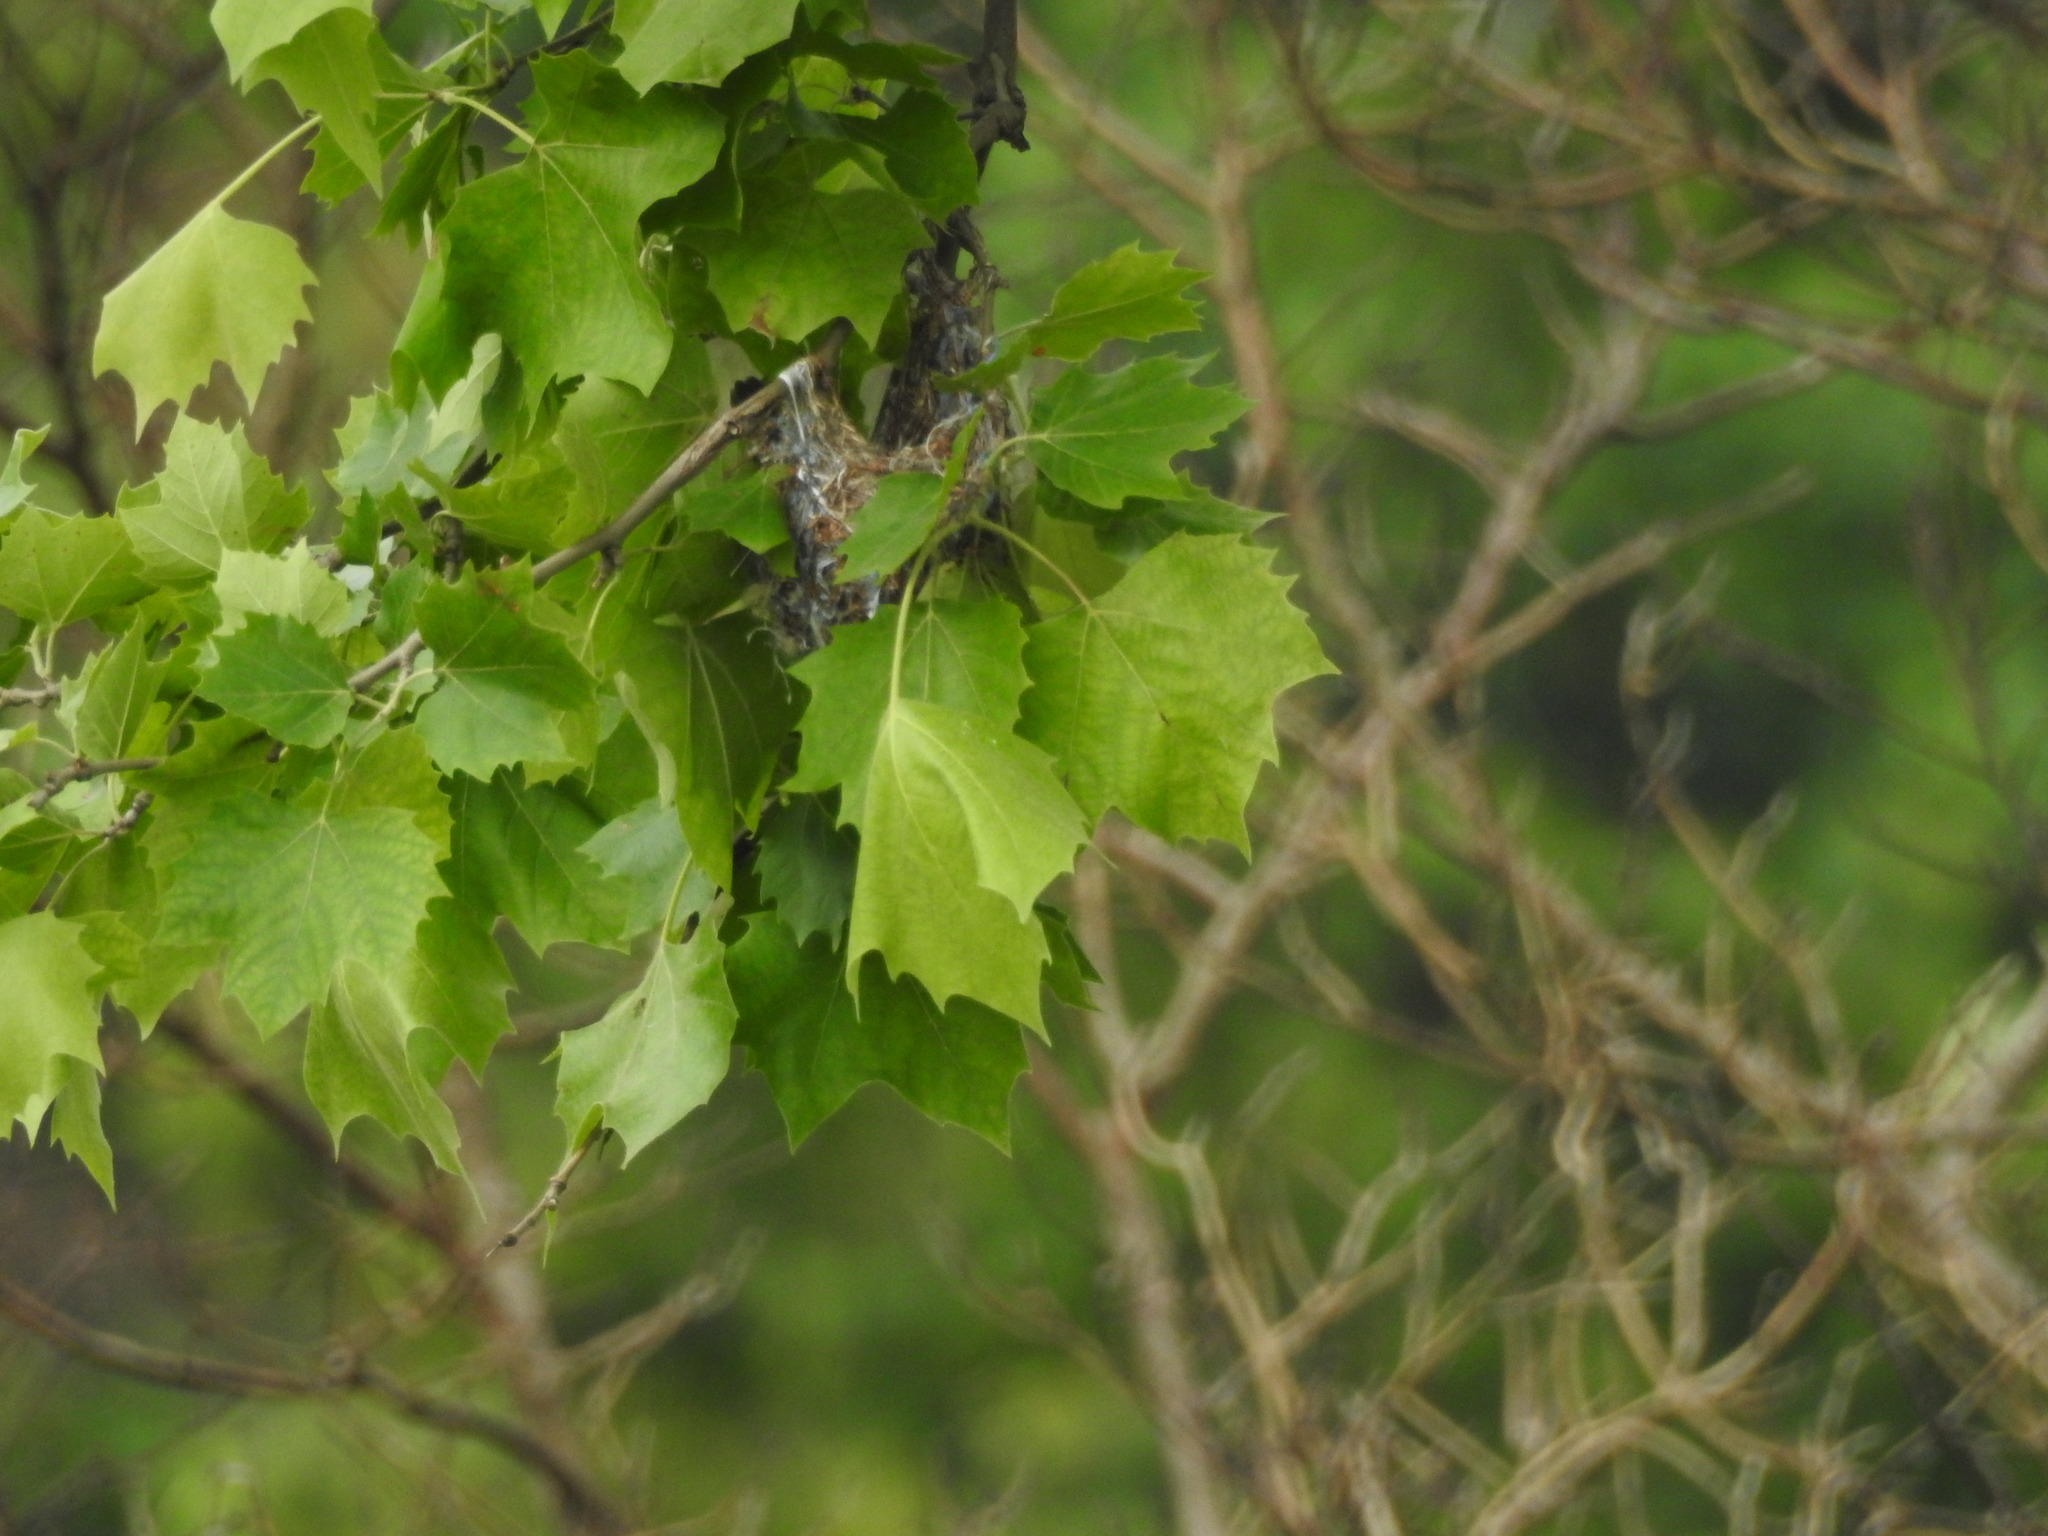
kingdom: Plantae
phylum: Tracheophyta
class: Magnoliopsida
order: Proteales
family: Platanaceae
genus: Platanus
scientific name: Platanus occidentalis
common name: American sycamore
